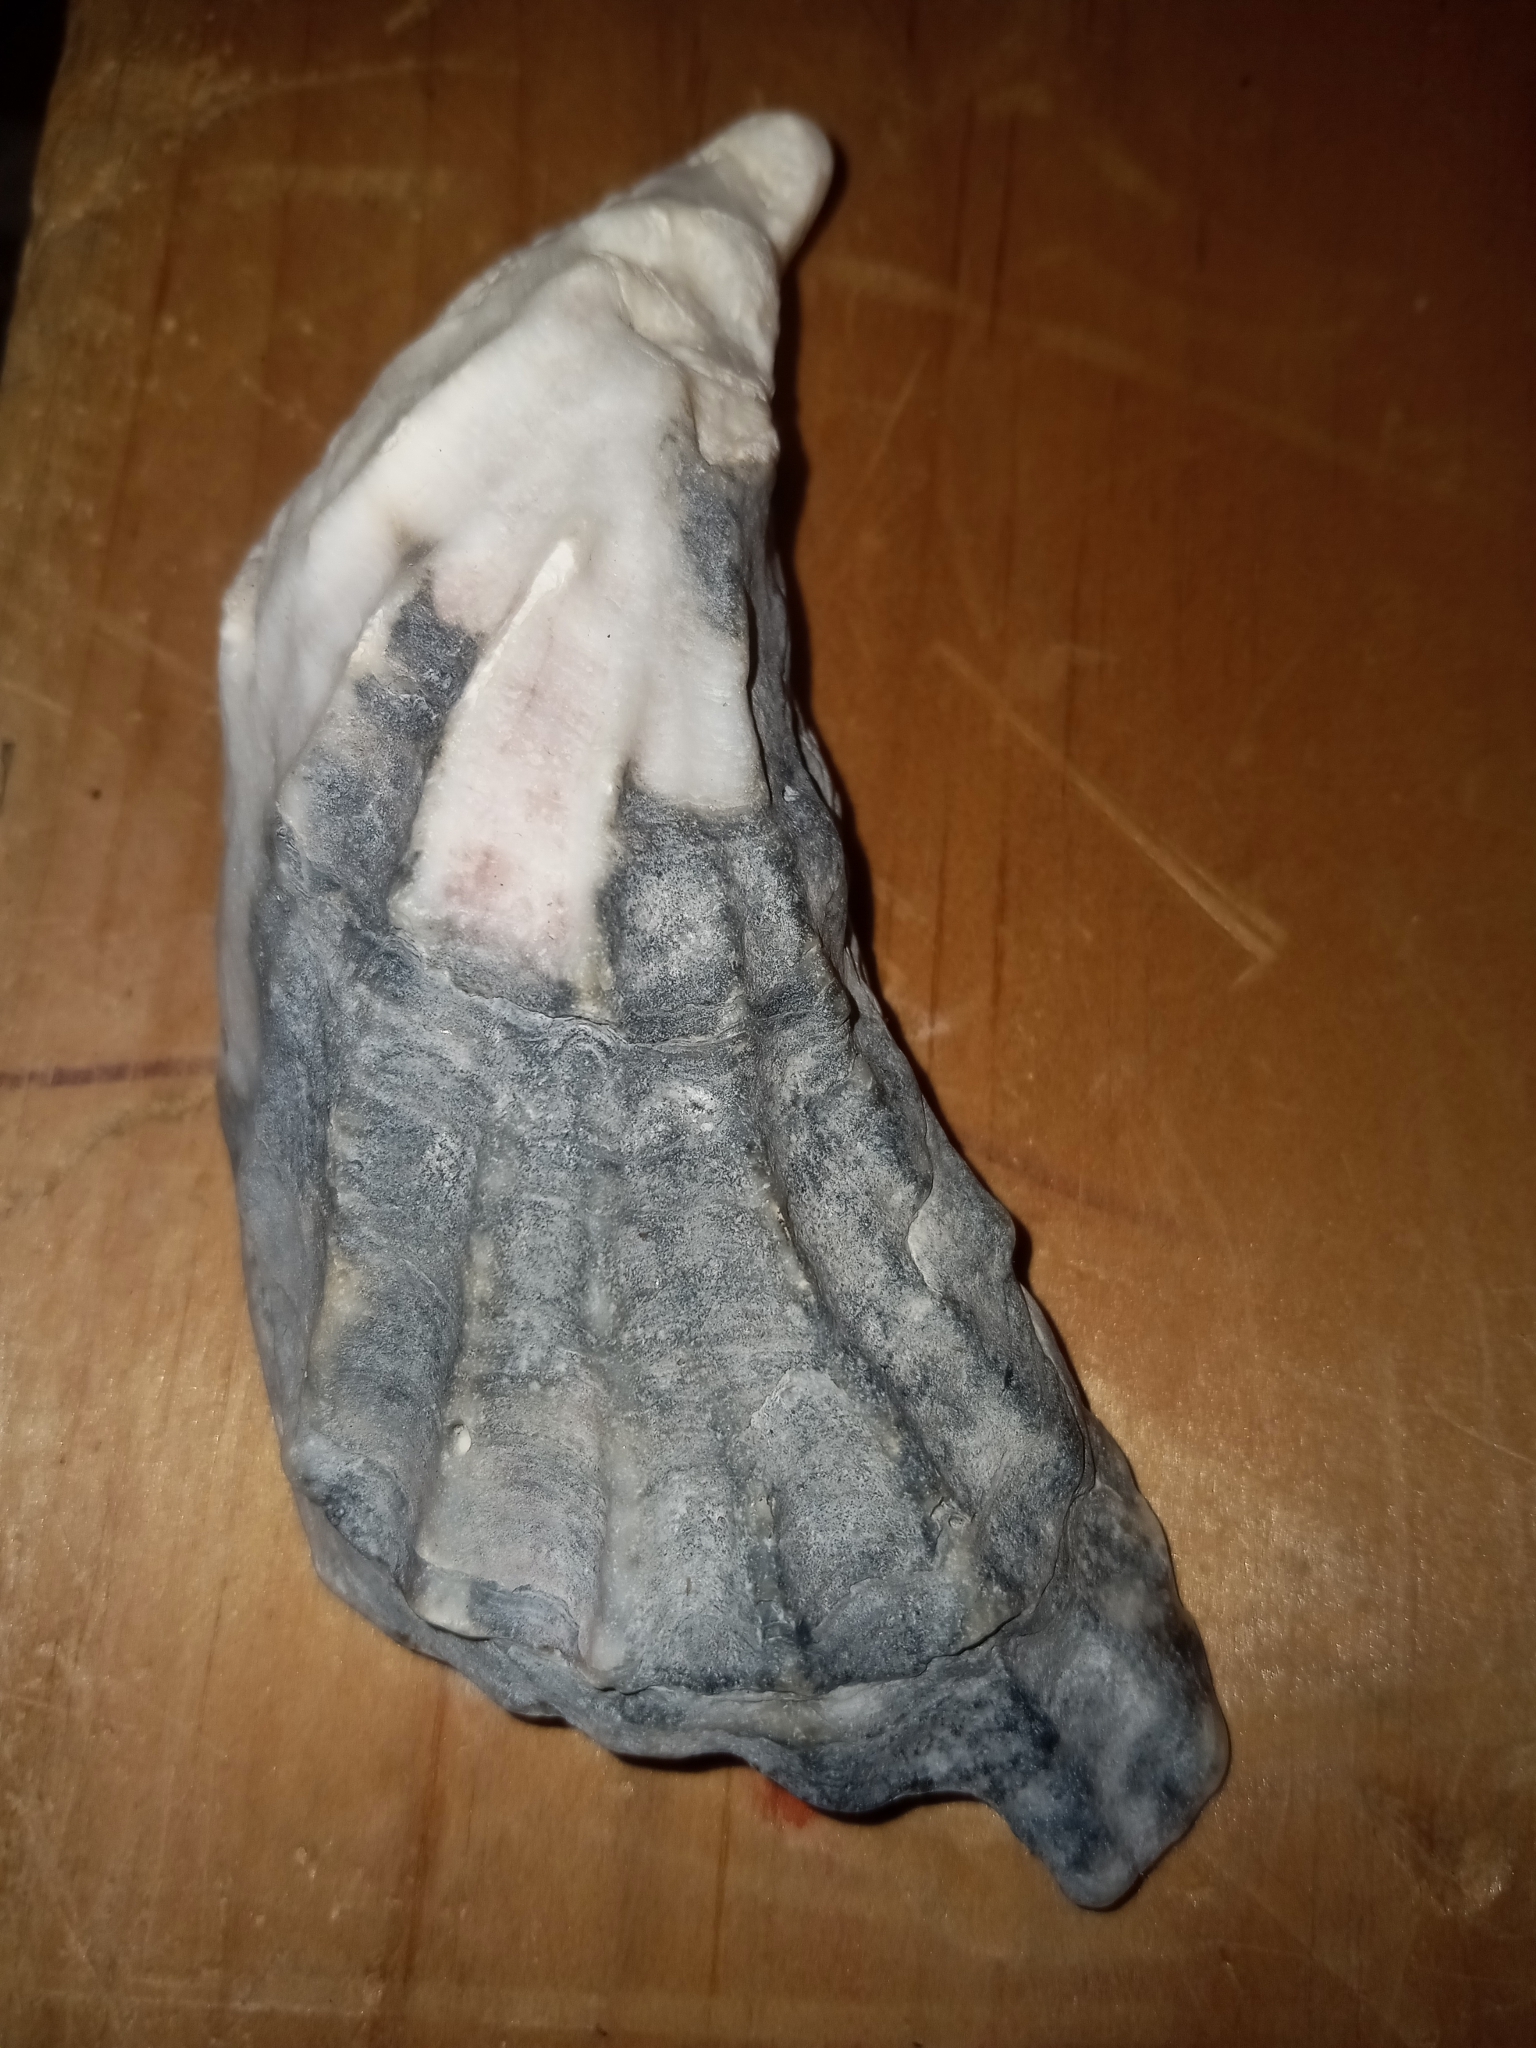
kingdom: Animalia
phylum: Mollusca
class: Bivalvia
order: Ostreida
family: Ostreidae
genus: Crassostrea
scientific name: Crassostrea virginica
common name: American oyster
